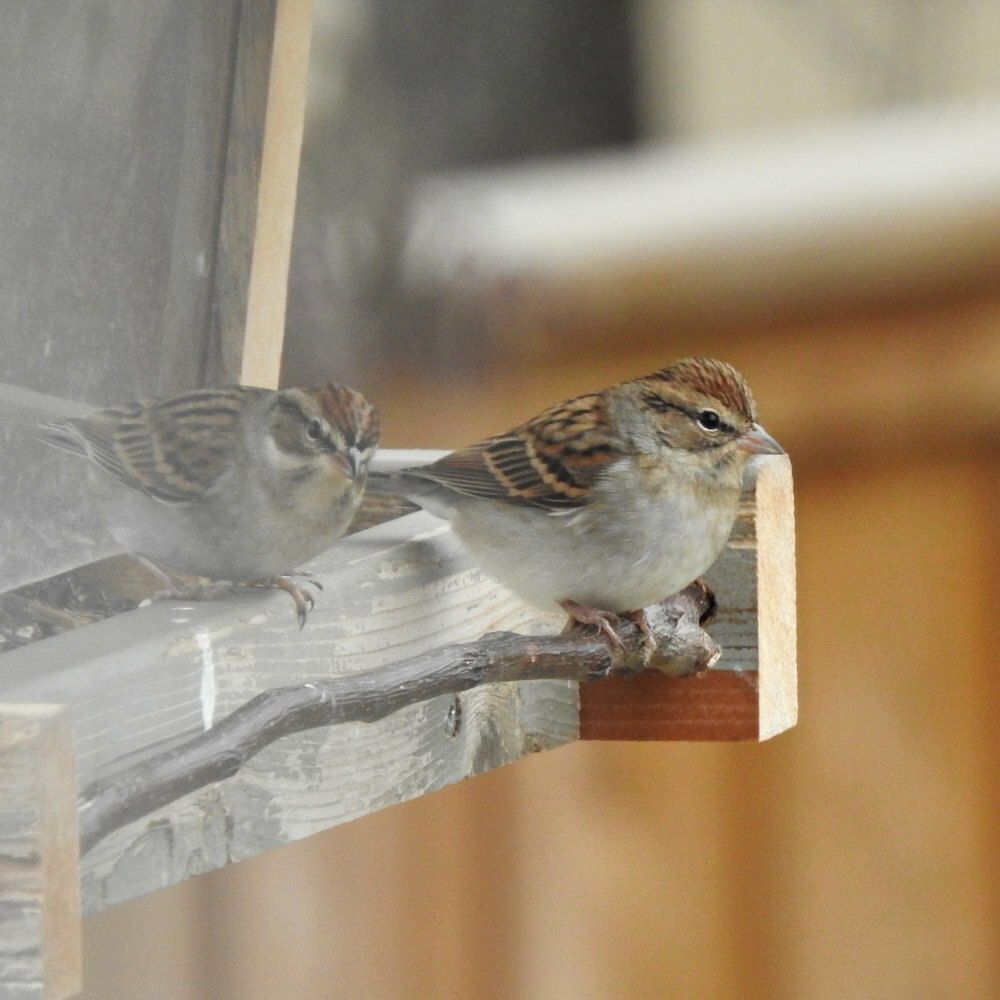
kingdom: Animalia
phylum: Chordata
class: Aves
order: Passeriformes
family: Passerellidae
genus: Spizella
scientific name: Spizella passerina
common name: Chipping sparrow
